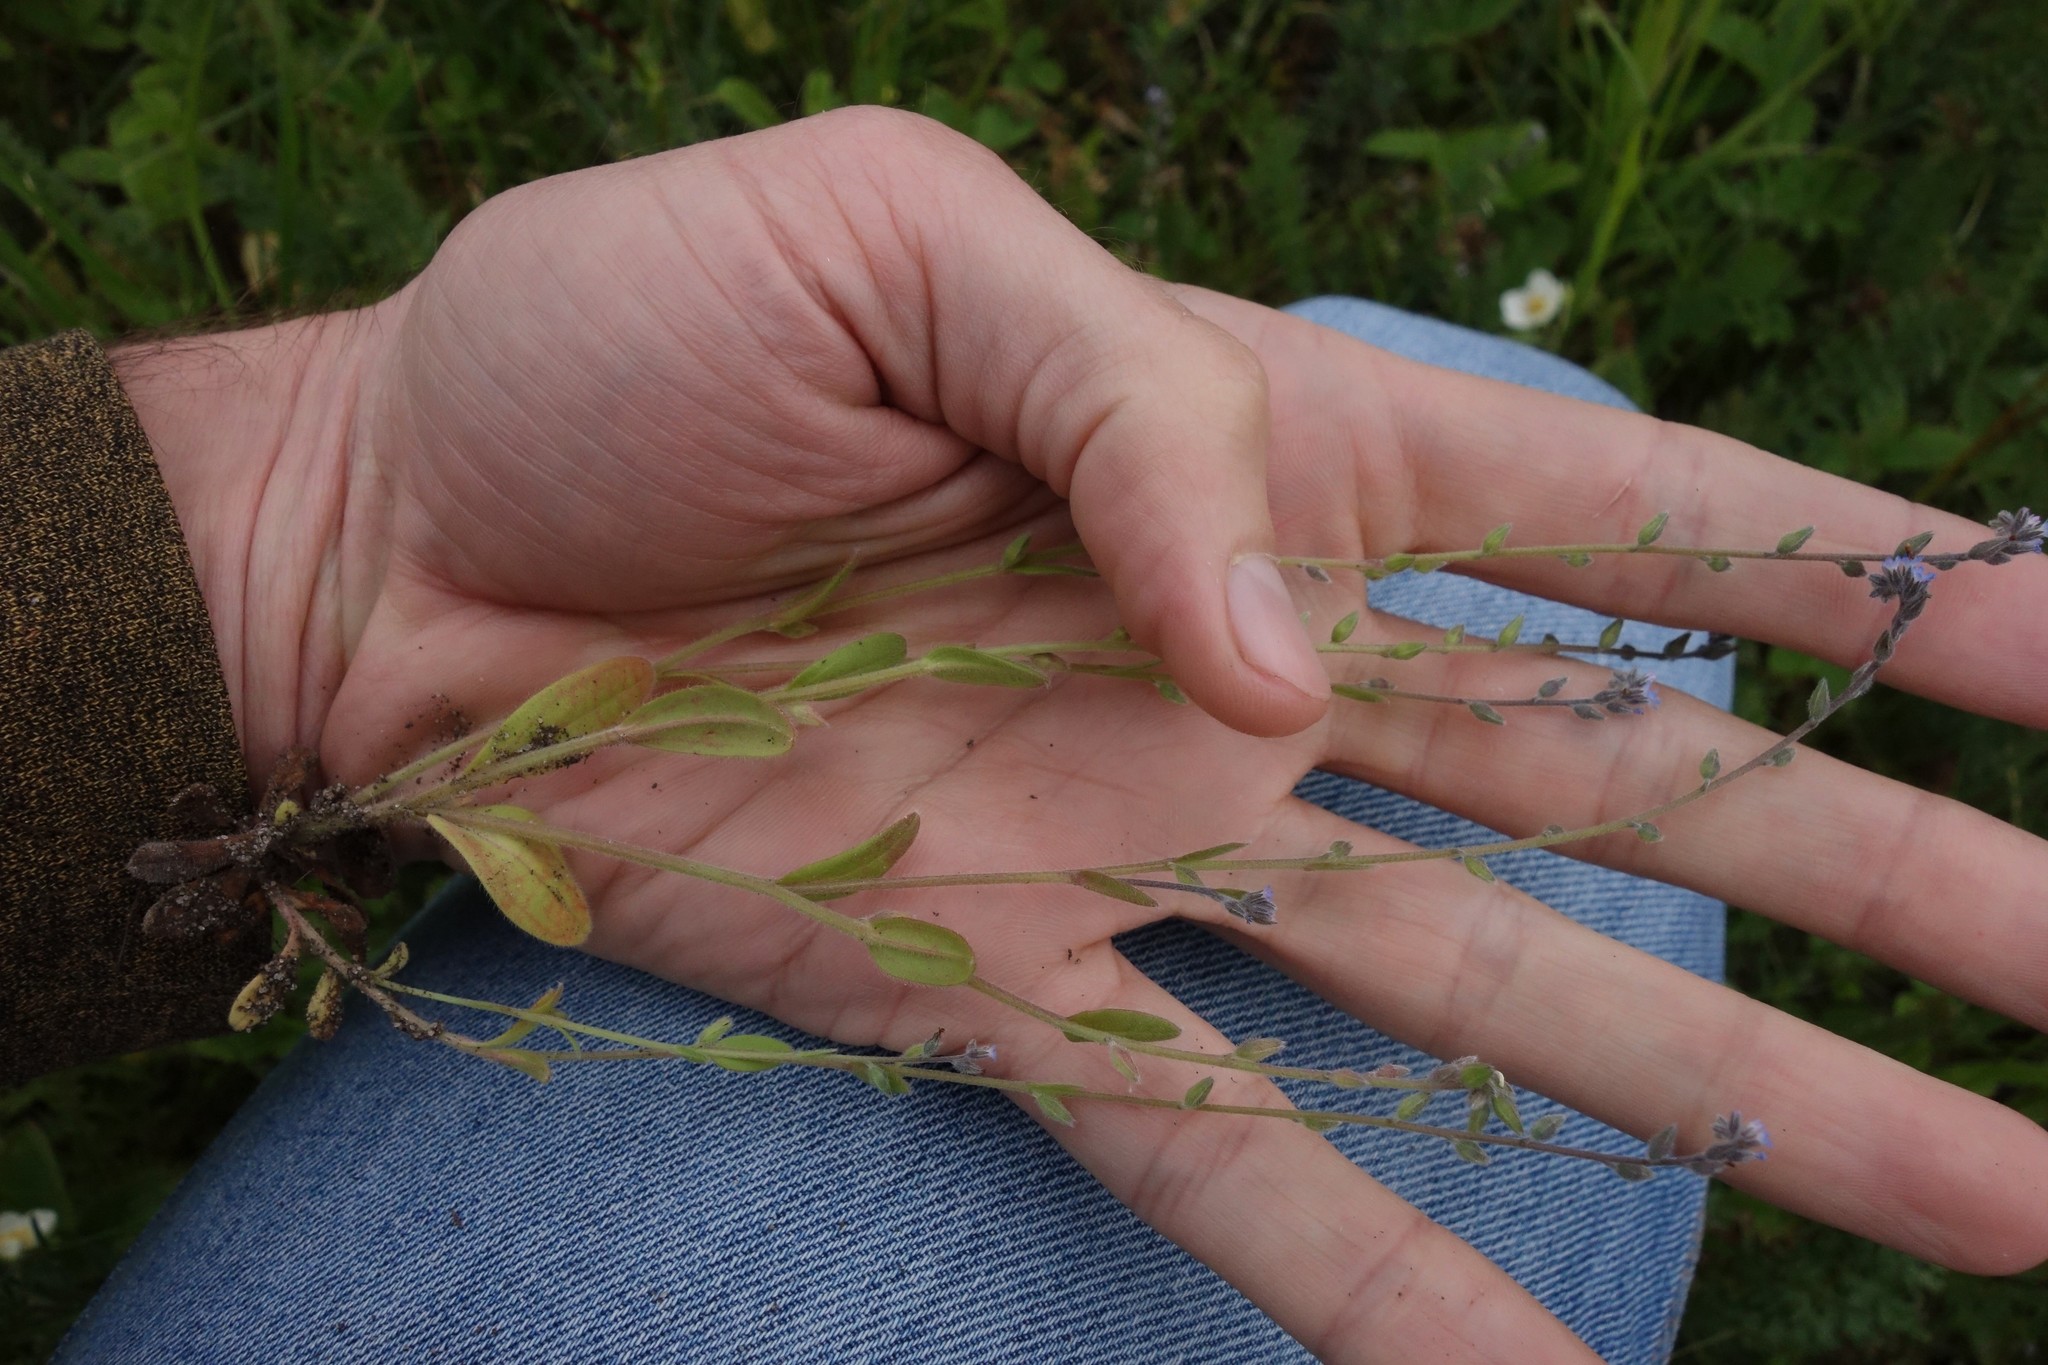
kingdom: Plantae
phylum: Tracheophyta
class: Magnoliopsida
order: Boraginales
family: Boraginaceae
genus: Myosotis
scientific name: Myosotis stricta
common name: Strict forget-me-not
